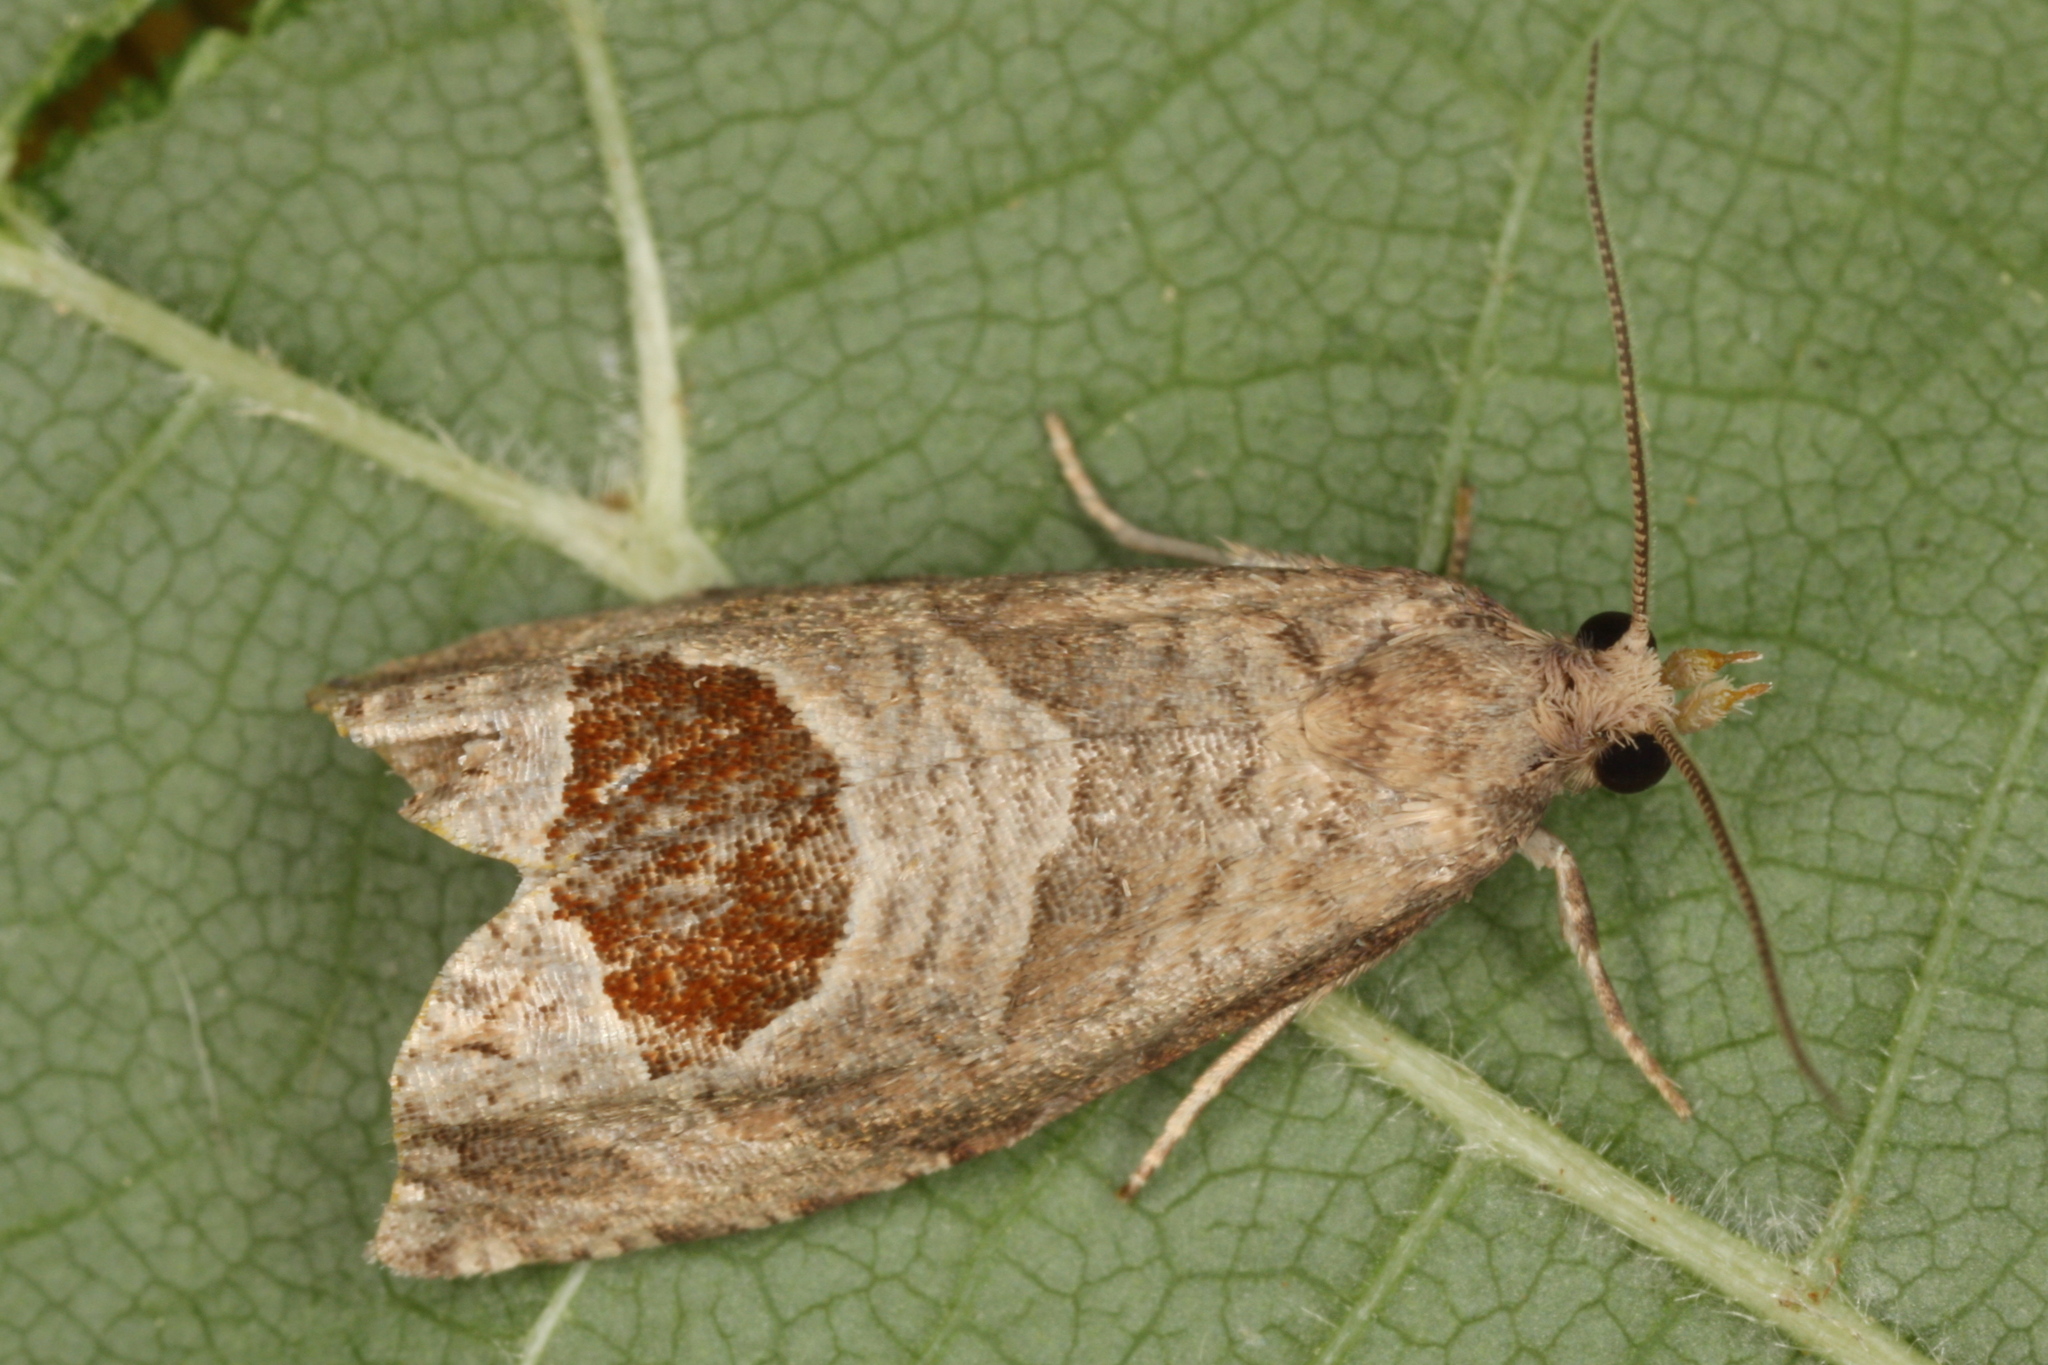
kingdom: Animalia
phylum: Arthropoda
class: Insecta
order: Lepidoptera
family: Tortricidae
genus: Notocelia
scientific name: Notocelia uddmanniana
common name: Bramble shoot moth
